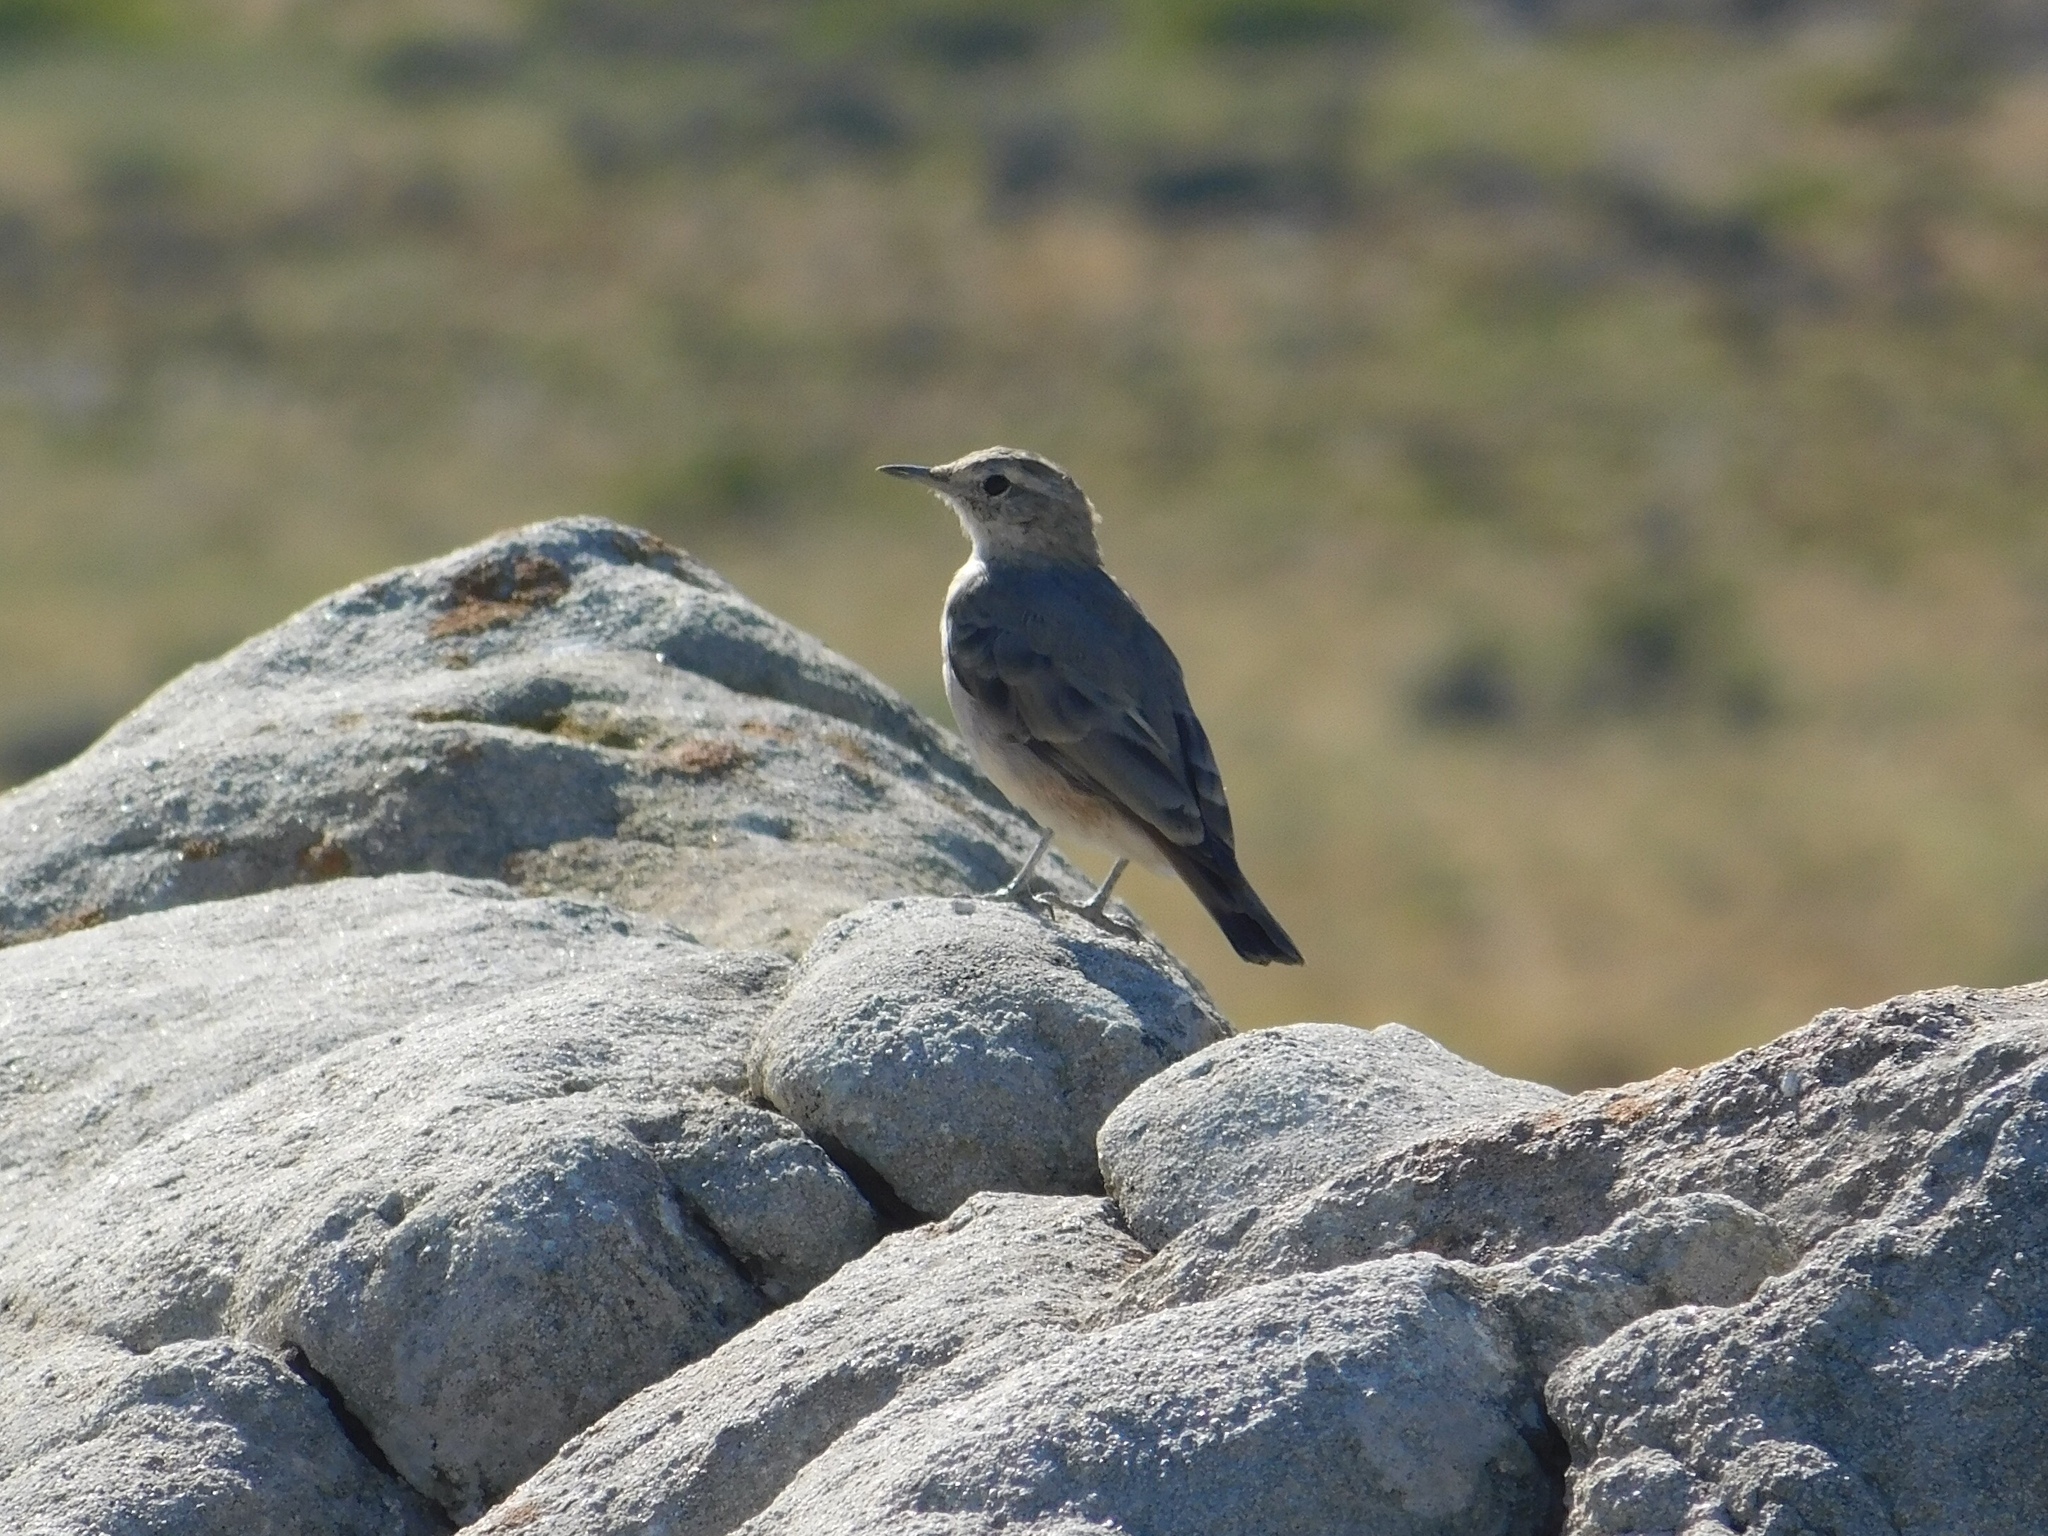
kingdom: Animalia
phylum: Chordata
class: Aves
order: Passeriformes
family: Furnariidae
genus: Geositta
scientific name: Geositta rufipennis
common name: Rufous-banded miner
